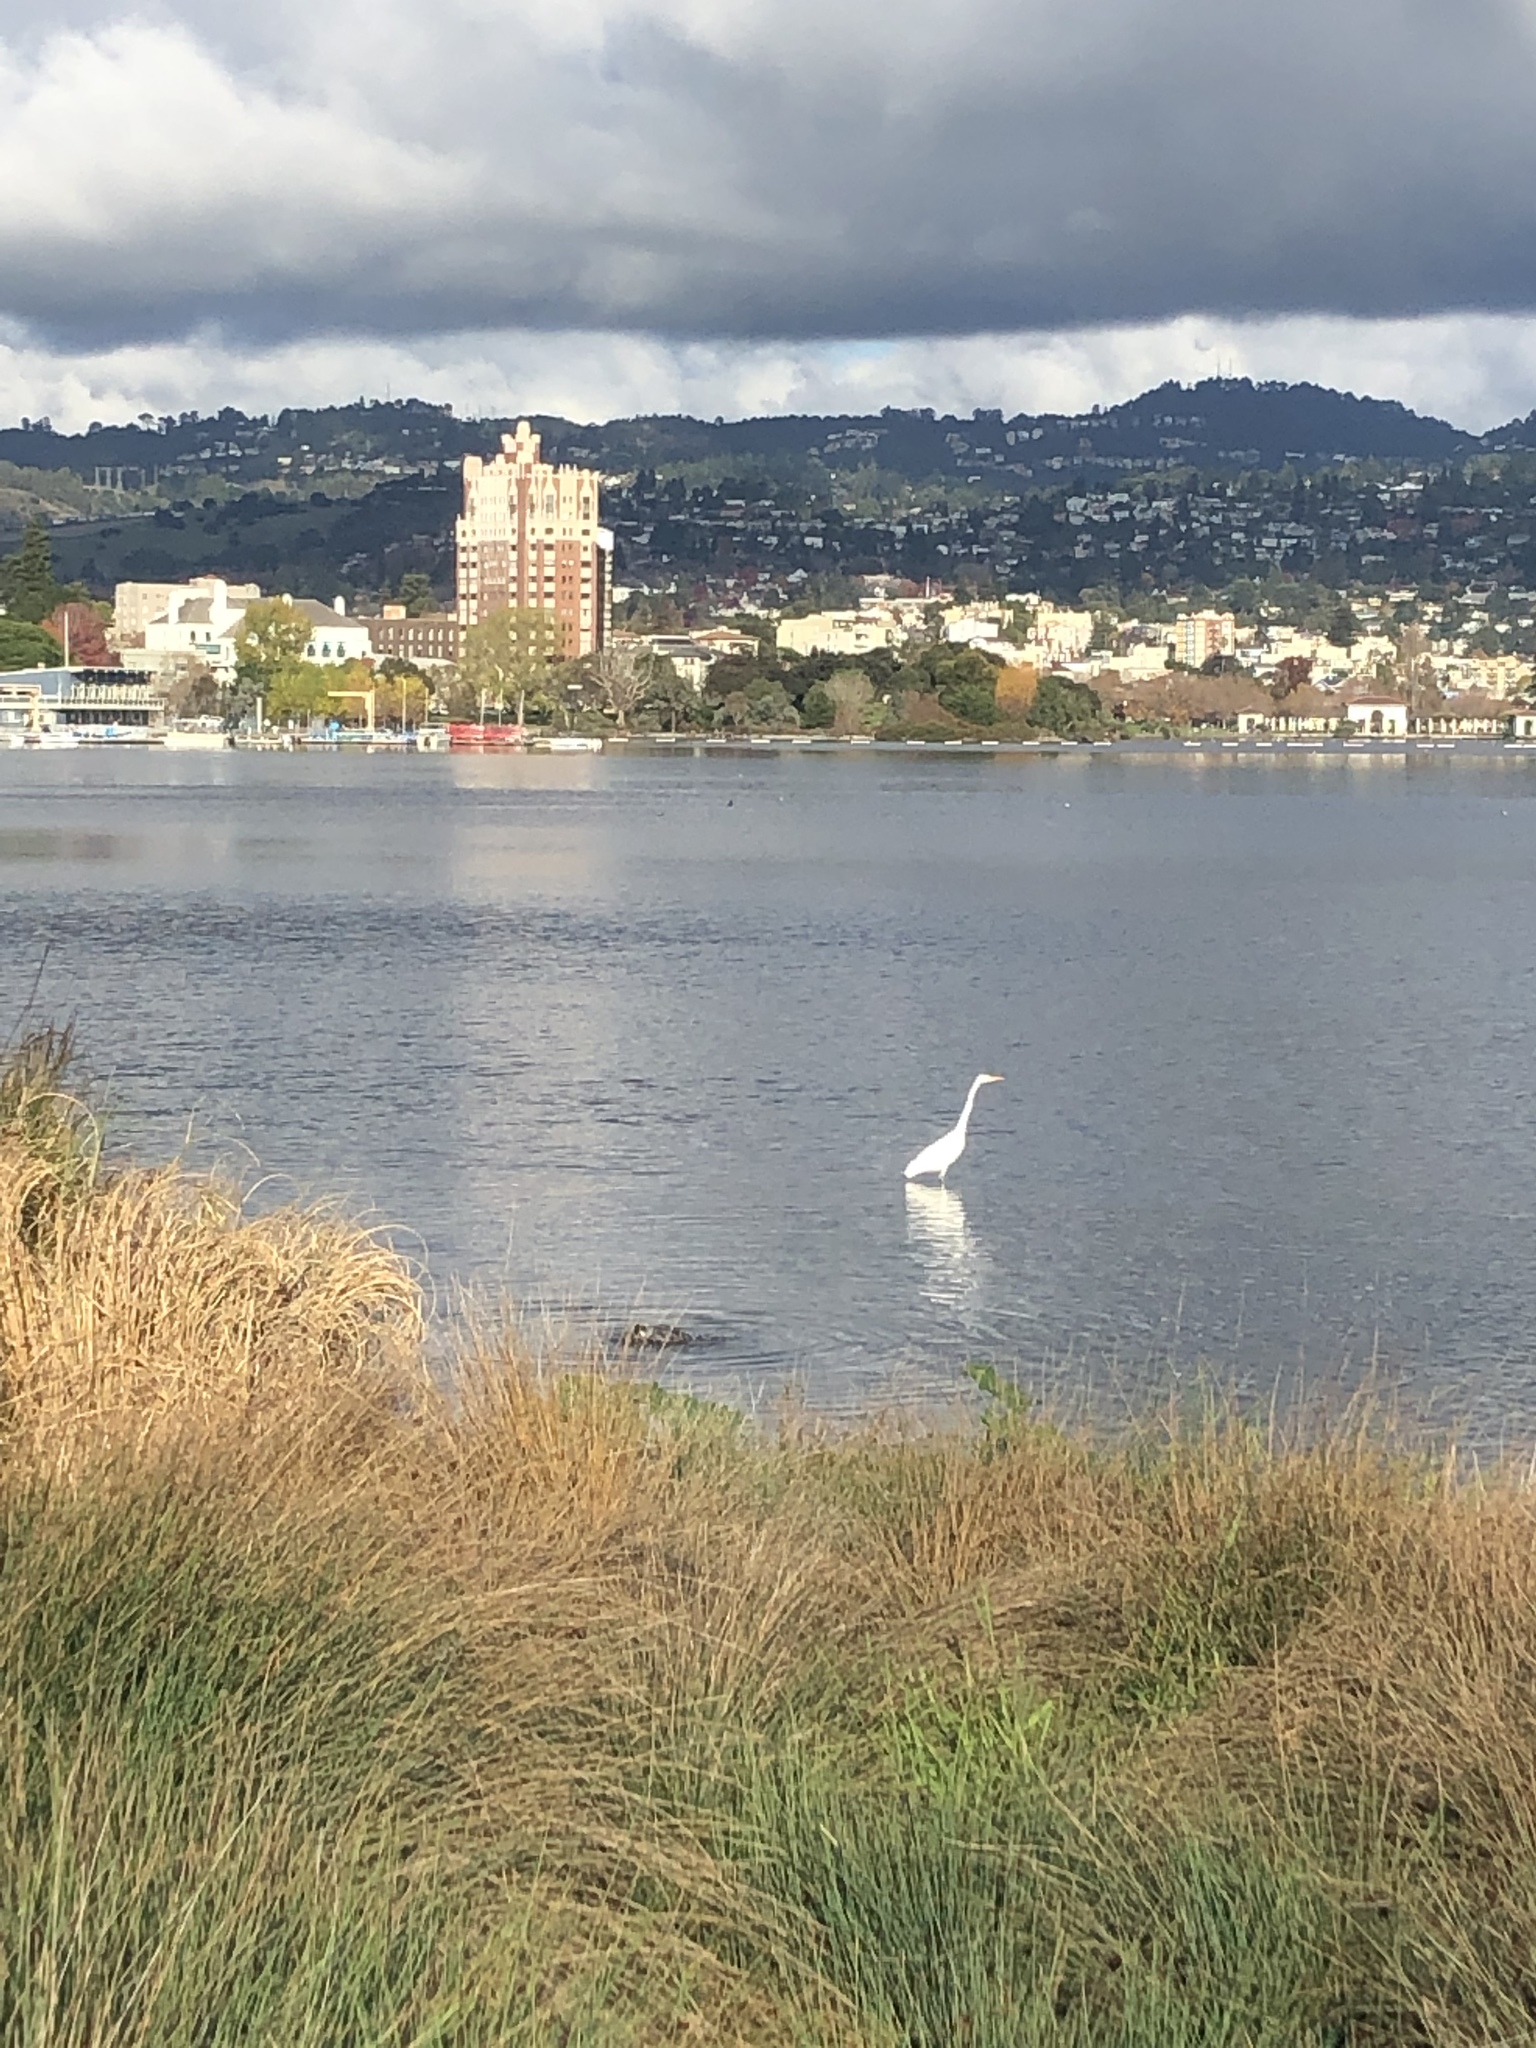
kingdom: Animalia
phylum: Chordata
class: Aves
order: Pelecaniformes
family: Ardeidae
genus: Ardea
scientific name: Ardea alba
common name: Great egret
